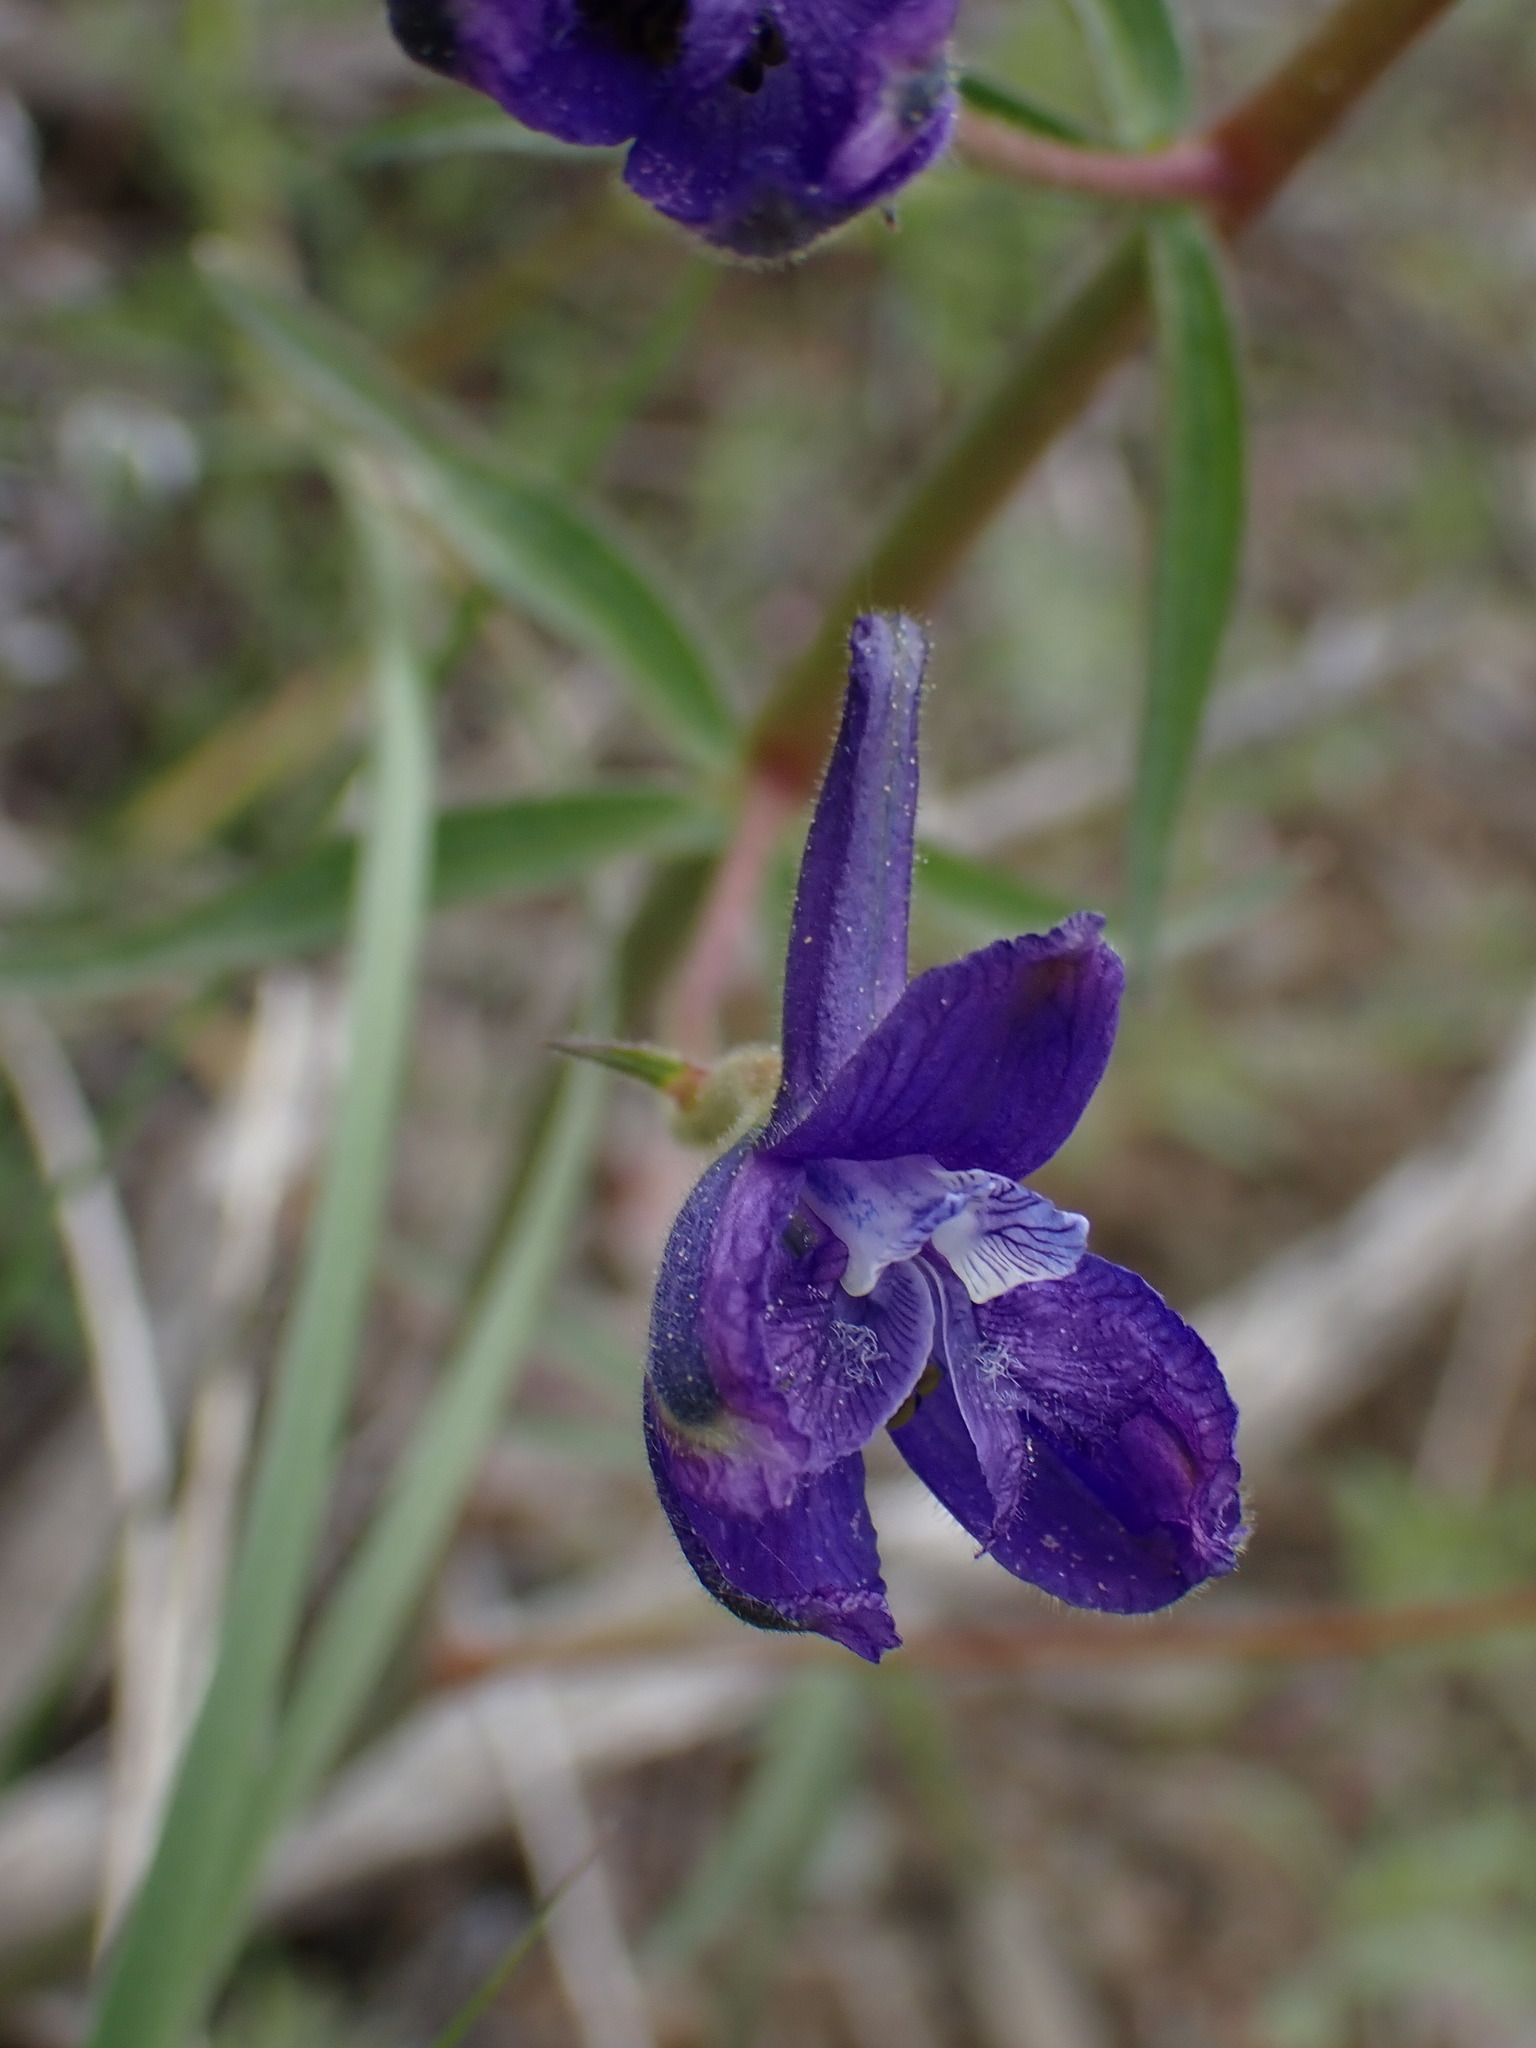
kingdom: Plantae
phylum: Tracheophyta
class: Magnoliopsida
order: Ranunculales
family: Ranunculaceae
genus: Delphinium
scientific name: Delphinium nuttallianum
